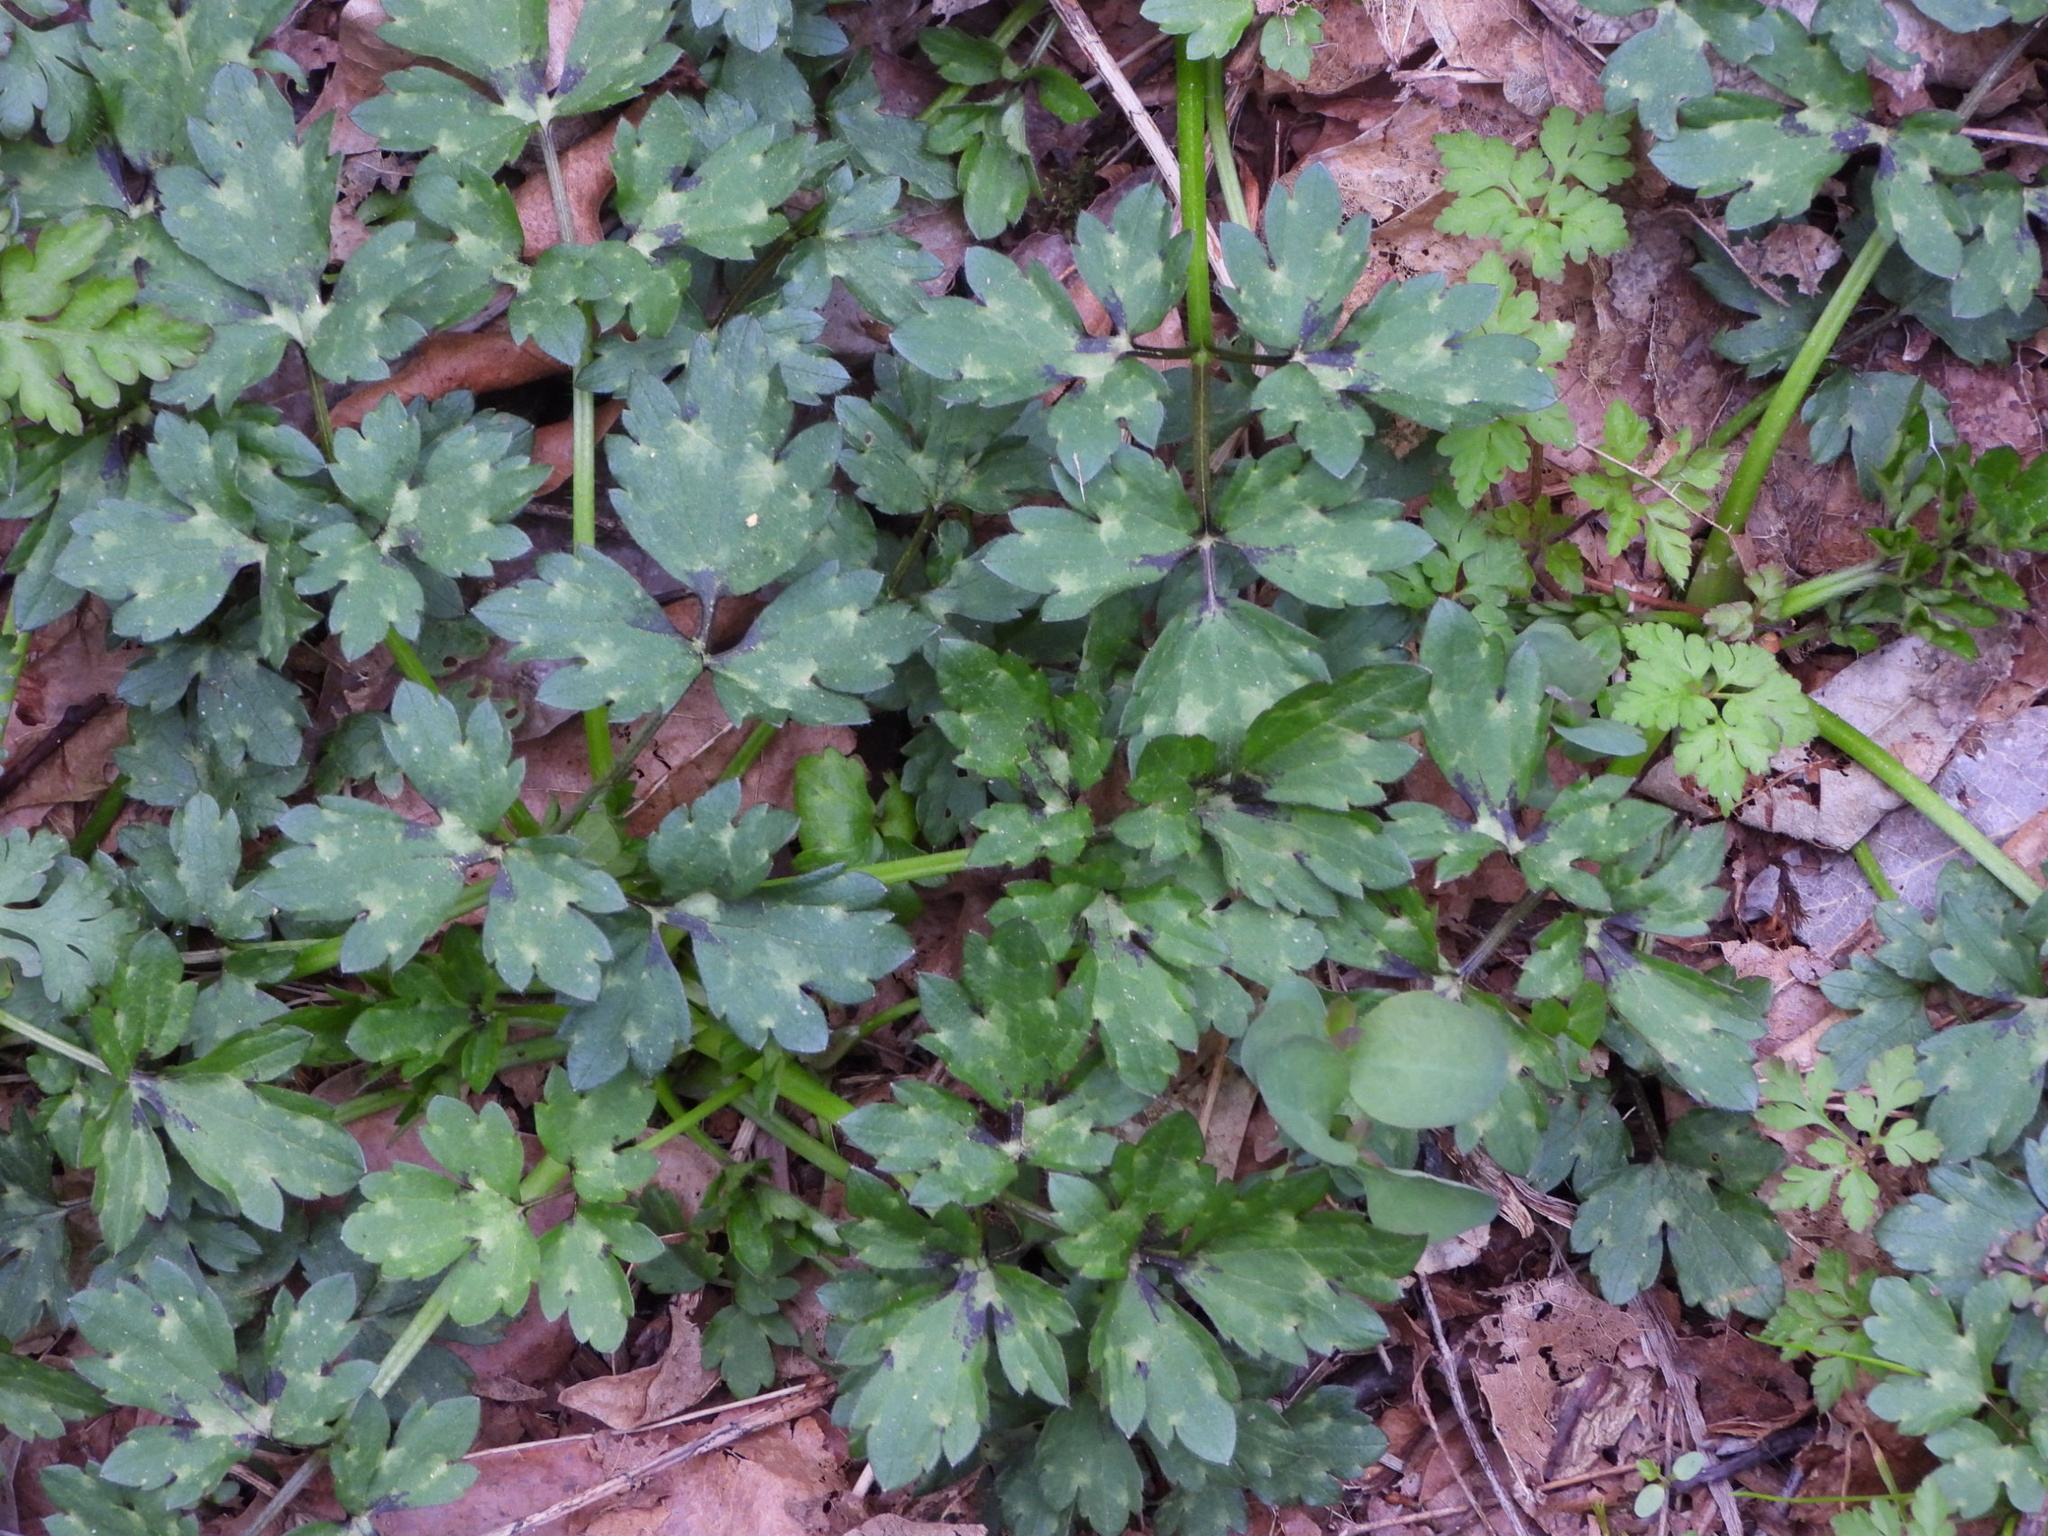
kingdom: Plantae
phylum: Tracheophyta
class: Magnoliopsida
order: Ranunculales
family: Ranunculaceae
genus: Ranunculus
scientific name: Ranunculus repens
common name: Creeping buttercup
